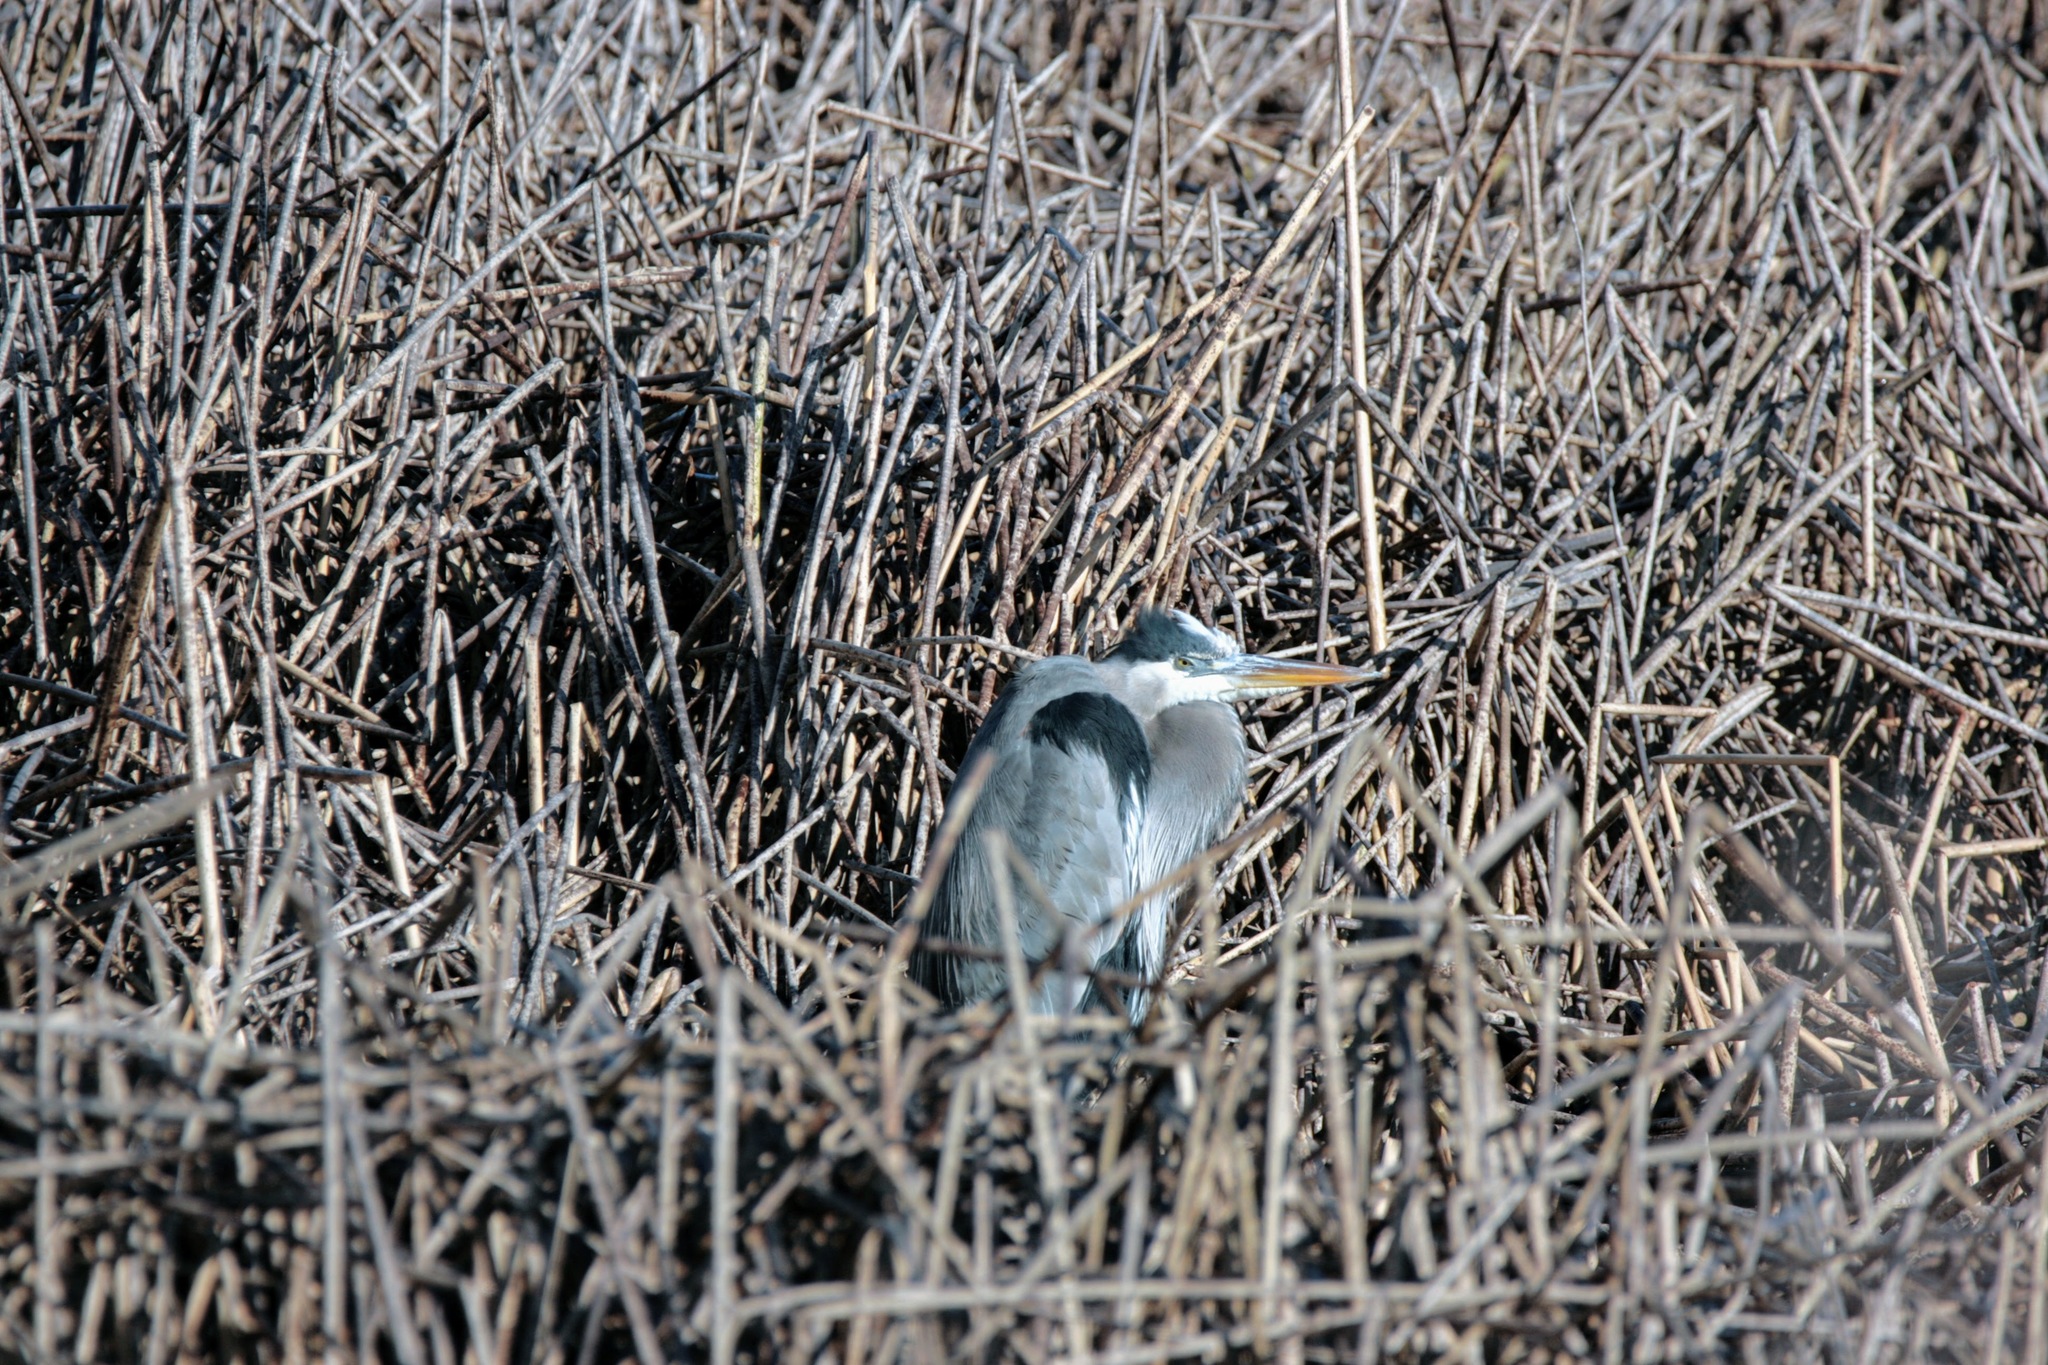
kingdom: Animalia
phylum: Chordata
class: Aves
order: Pelecaniformes
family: Ardeidae
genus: Ardea
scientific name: Ardea herodias
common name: Great blue heron
